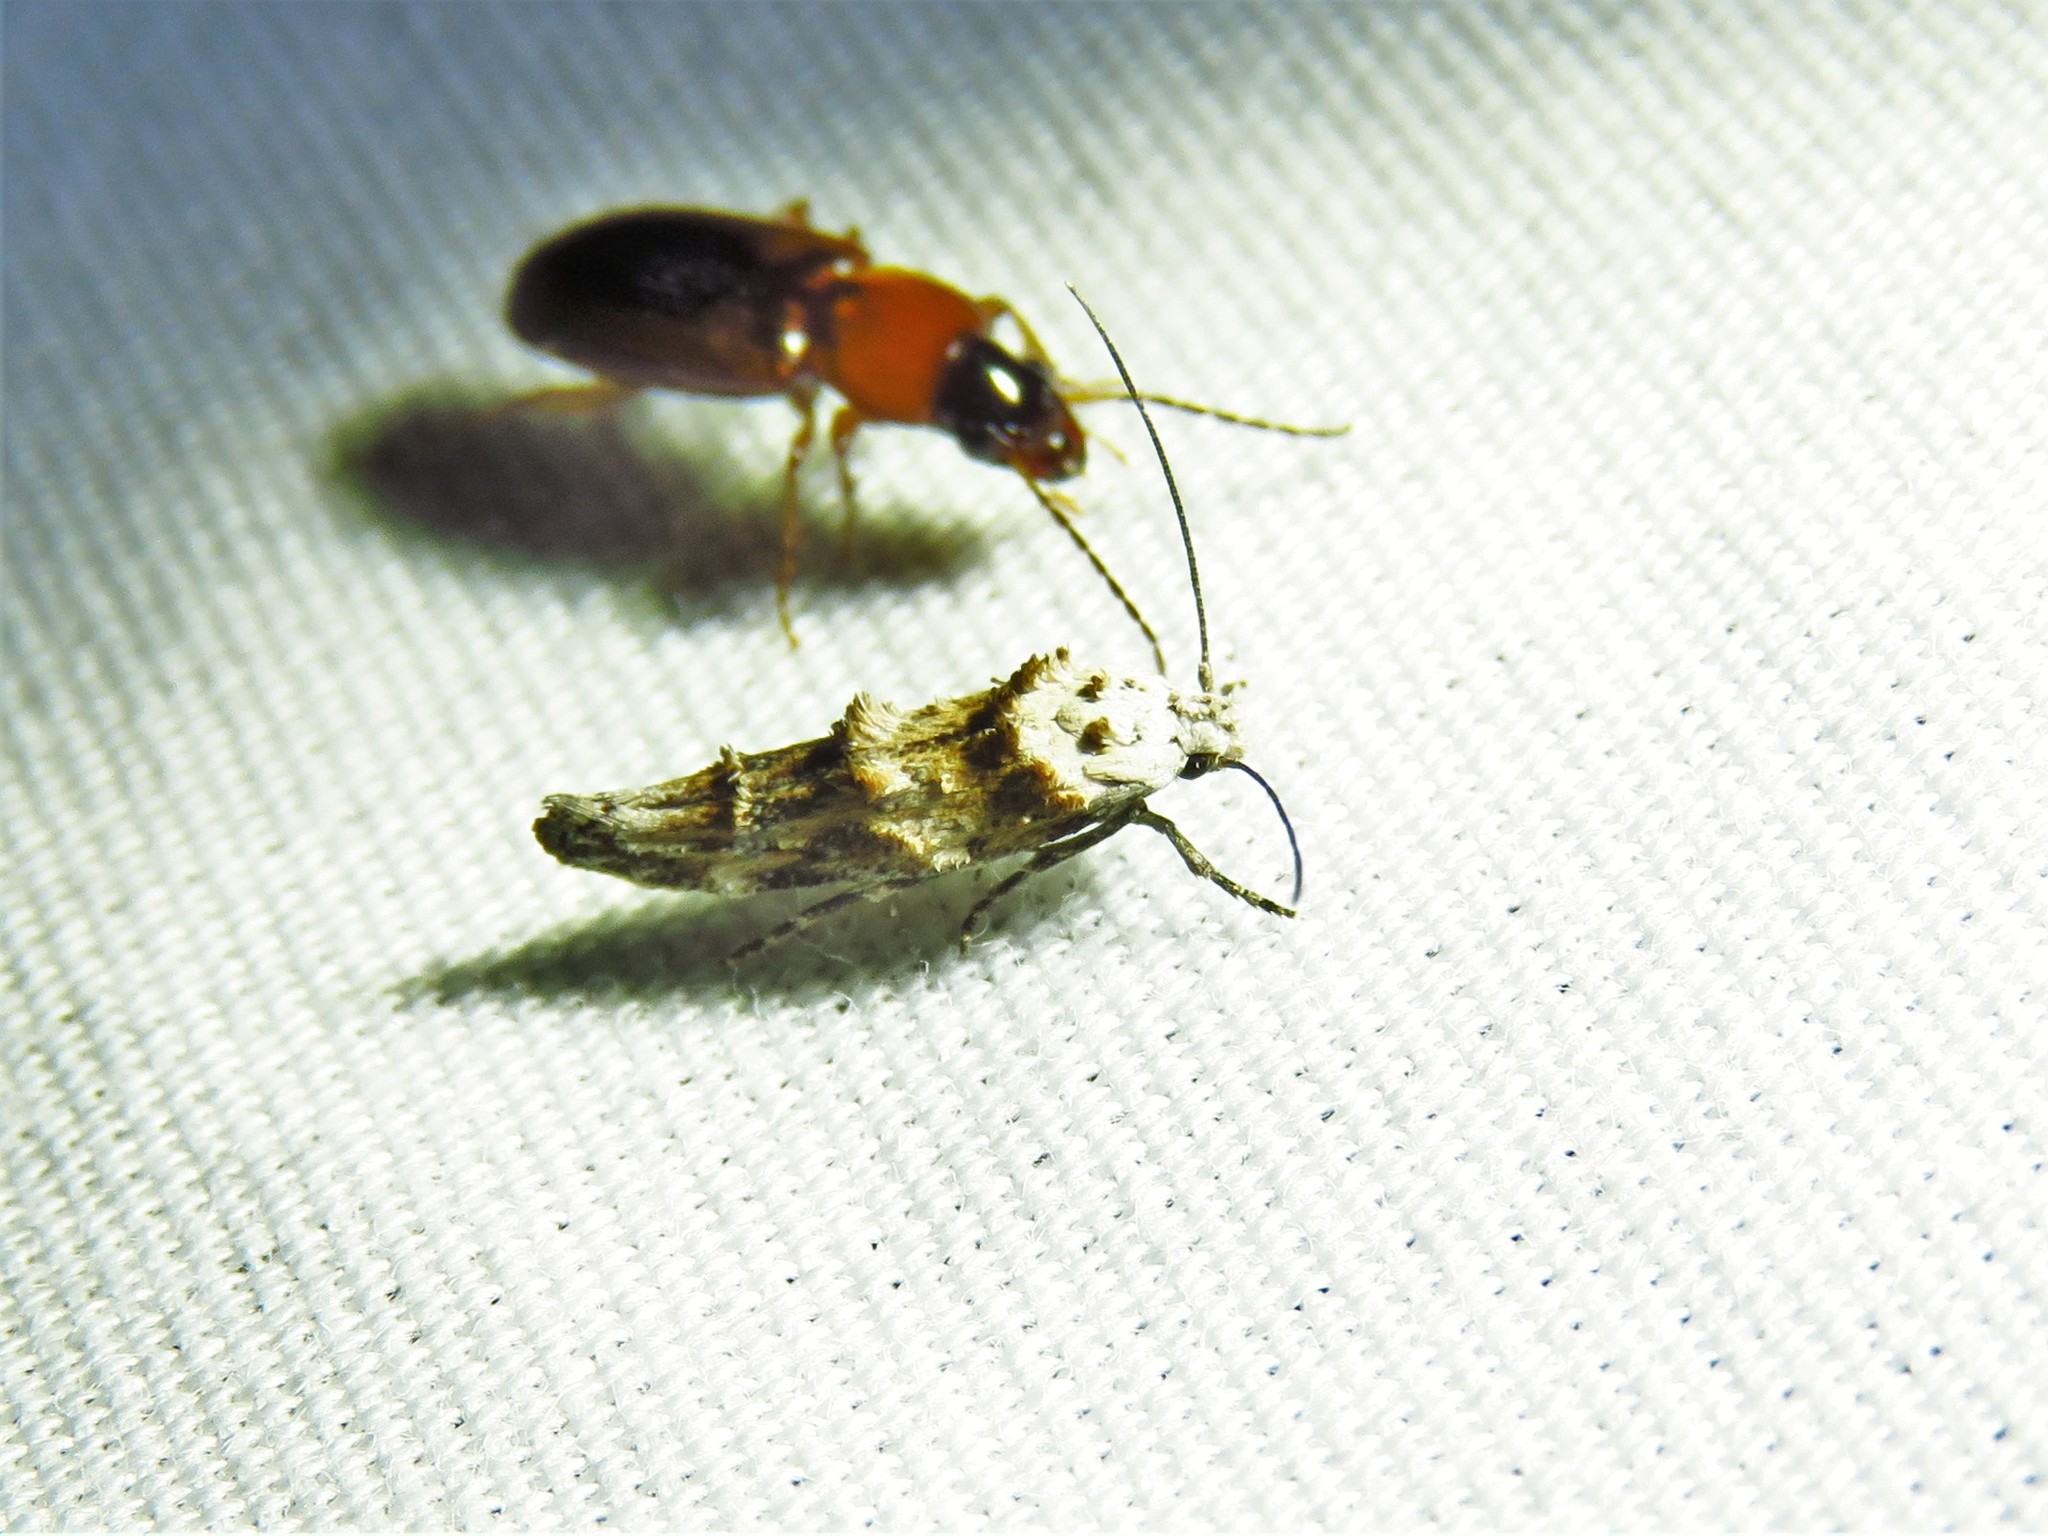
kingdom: Animalia
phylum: Arthropoda
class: Insecta
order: Lepidoptera
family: Momphidae
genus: Mompha
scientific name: Mompha rufocristatella
